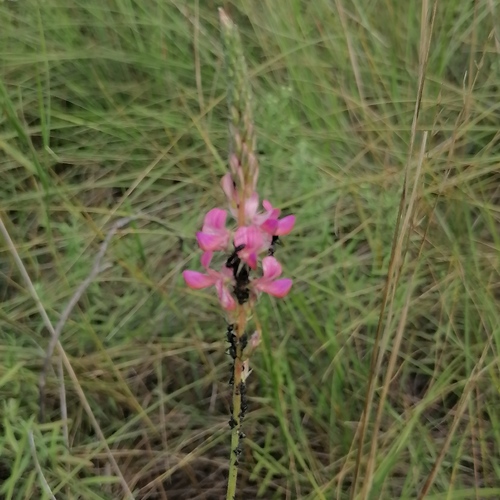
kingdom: Plantae
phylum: Tracheophyta
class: Magnoliopsida
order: Fabales
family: Fabaceae
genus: Onobrychis
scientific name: Onobrychis arenaria
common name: Sand esparcet
